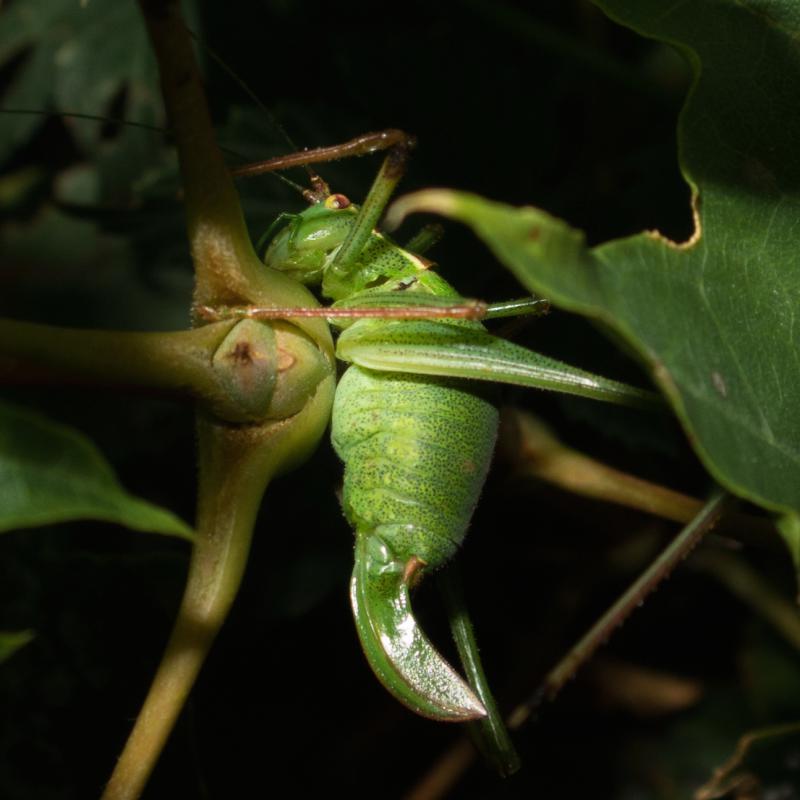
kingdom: Animalia
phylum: Arthropoda
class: Insecta
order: Orthoptera
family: Tettigoniidae
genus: Leptophyes
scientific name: Leptophyes punctatissima
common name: Speckled bush-cricket
